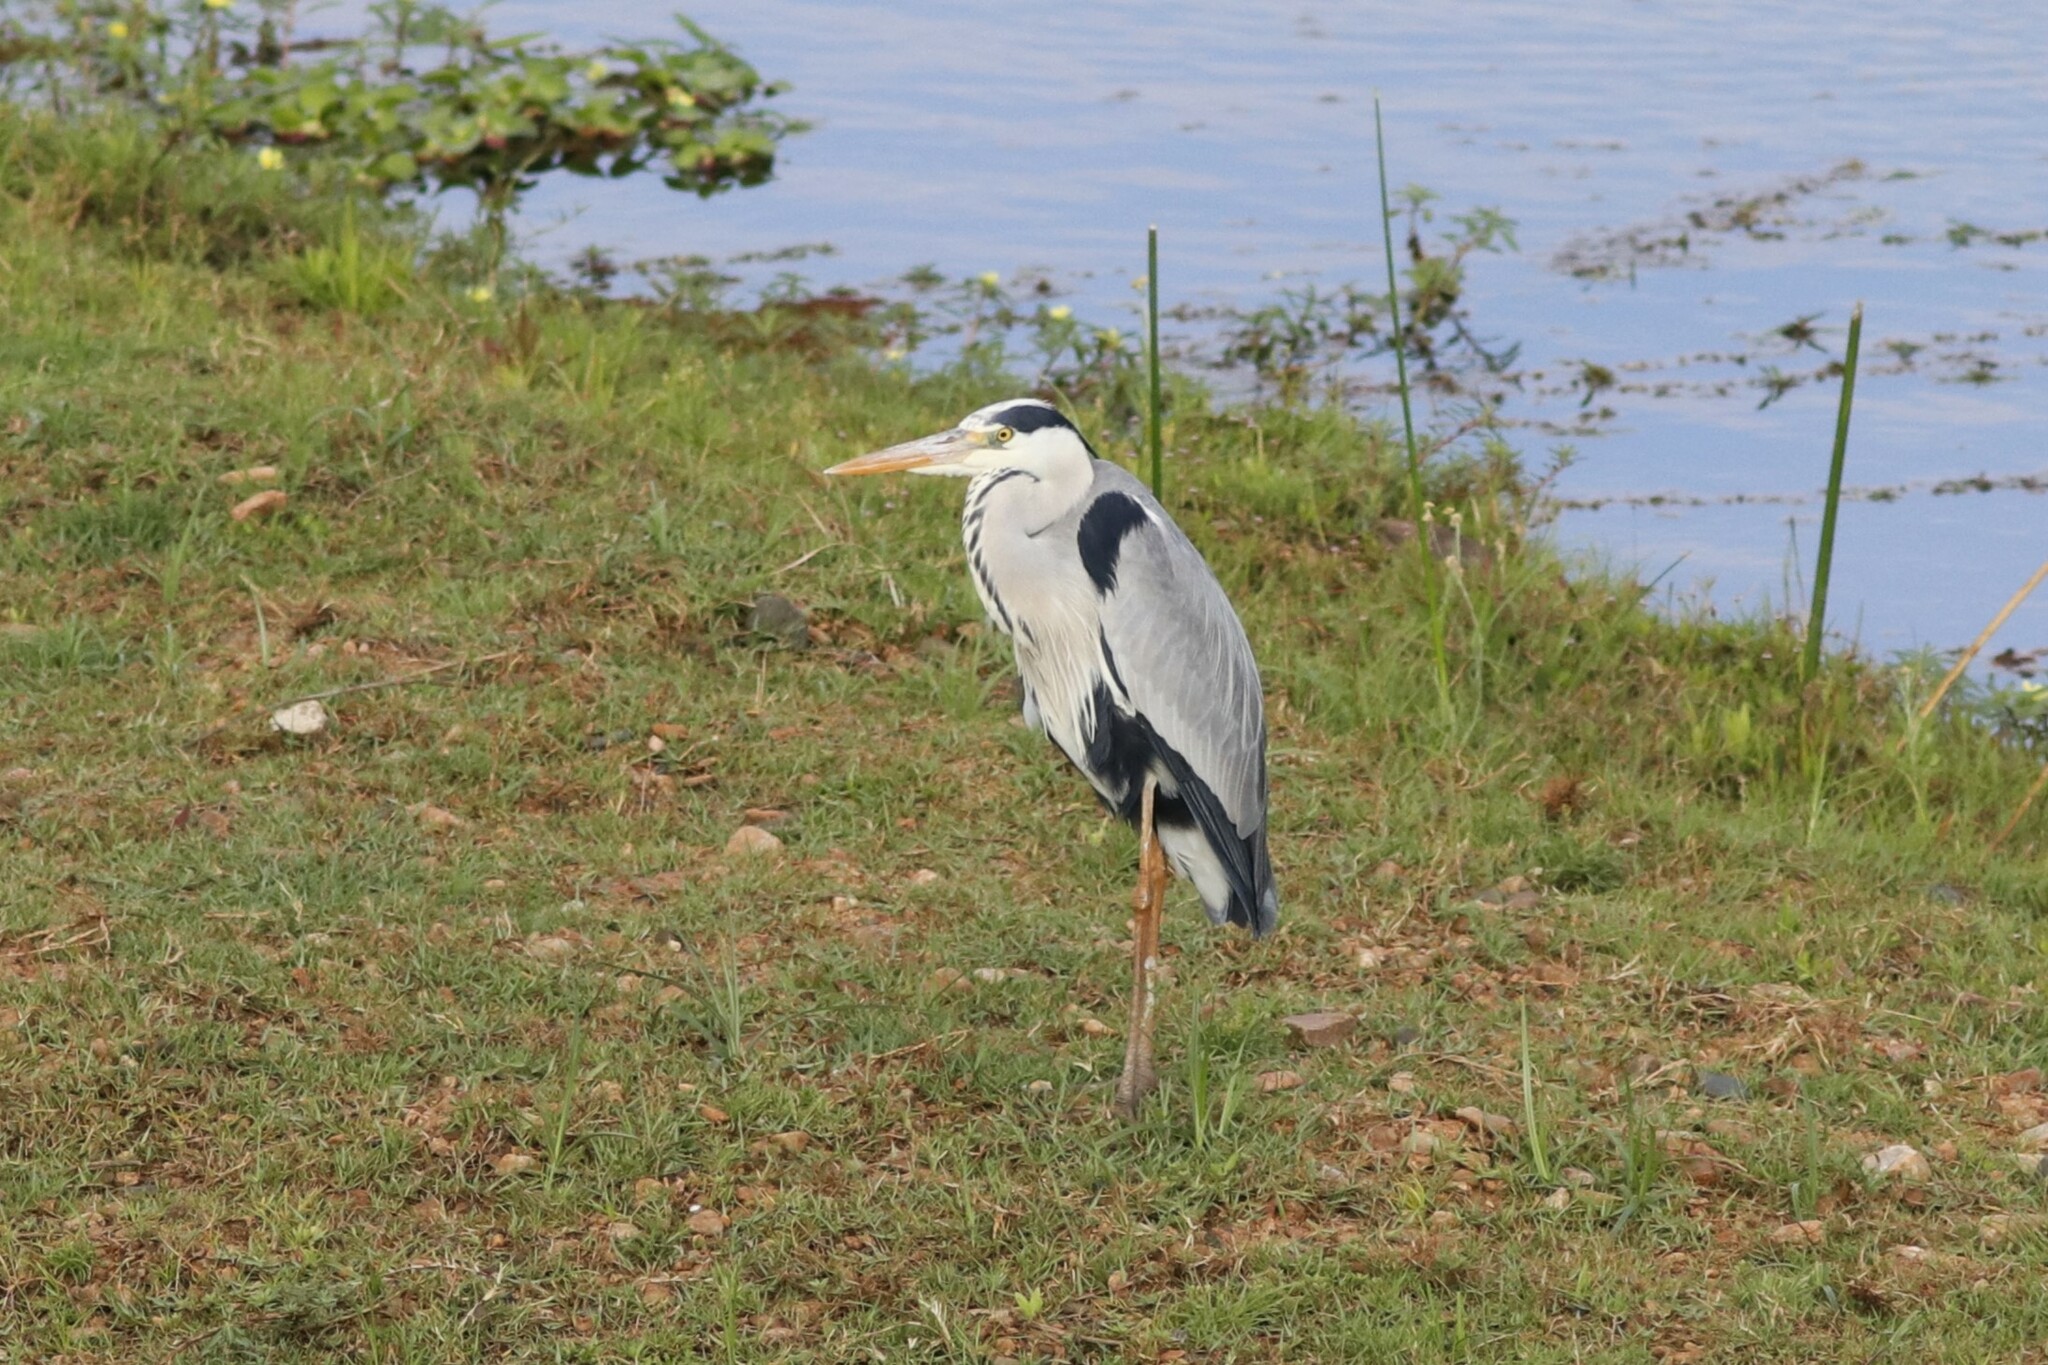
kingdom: Animalia
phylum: Chordata
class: Aves
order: Pelecaniformes
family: Ardeidae
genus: Ardea
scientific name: Ardea cinerea
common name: Grey heron
